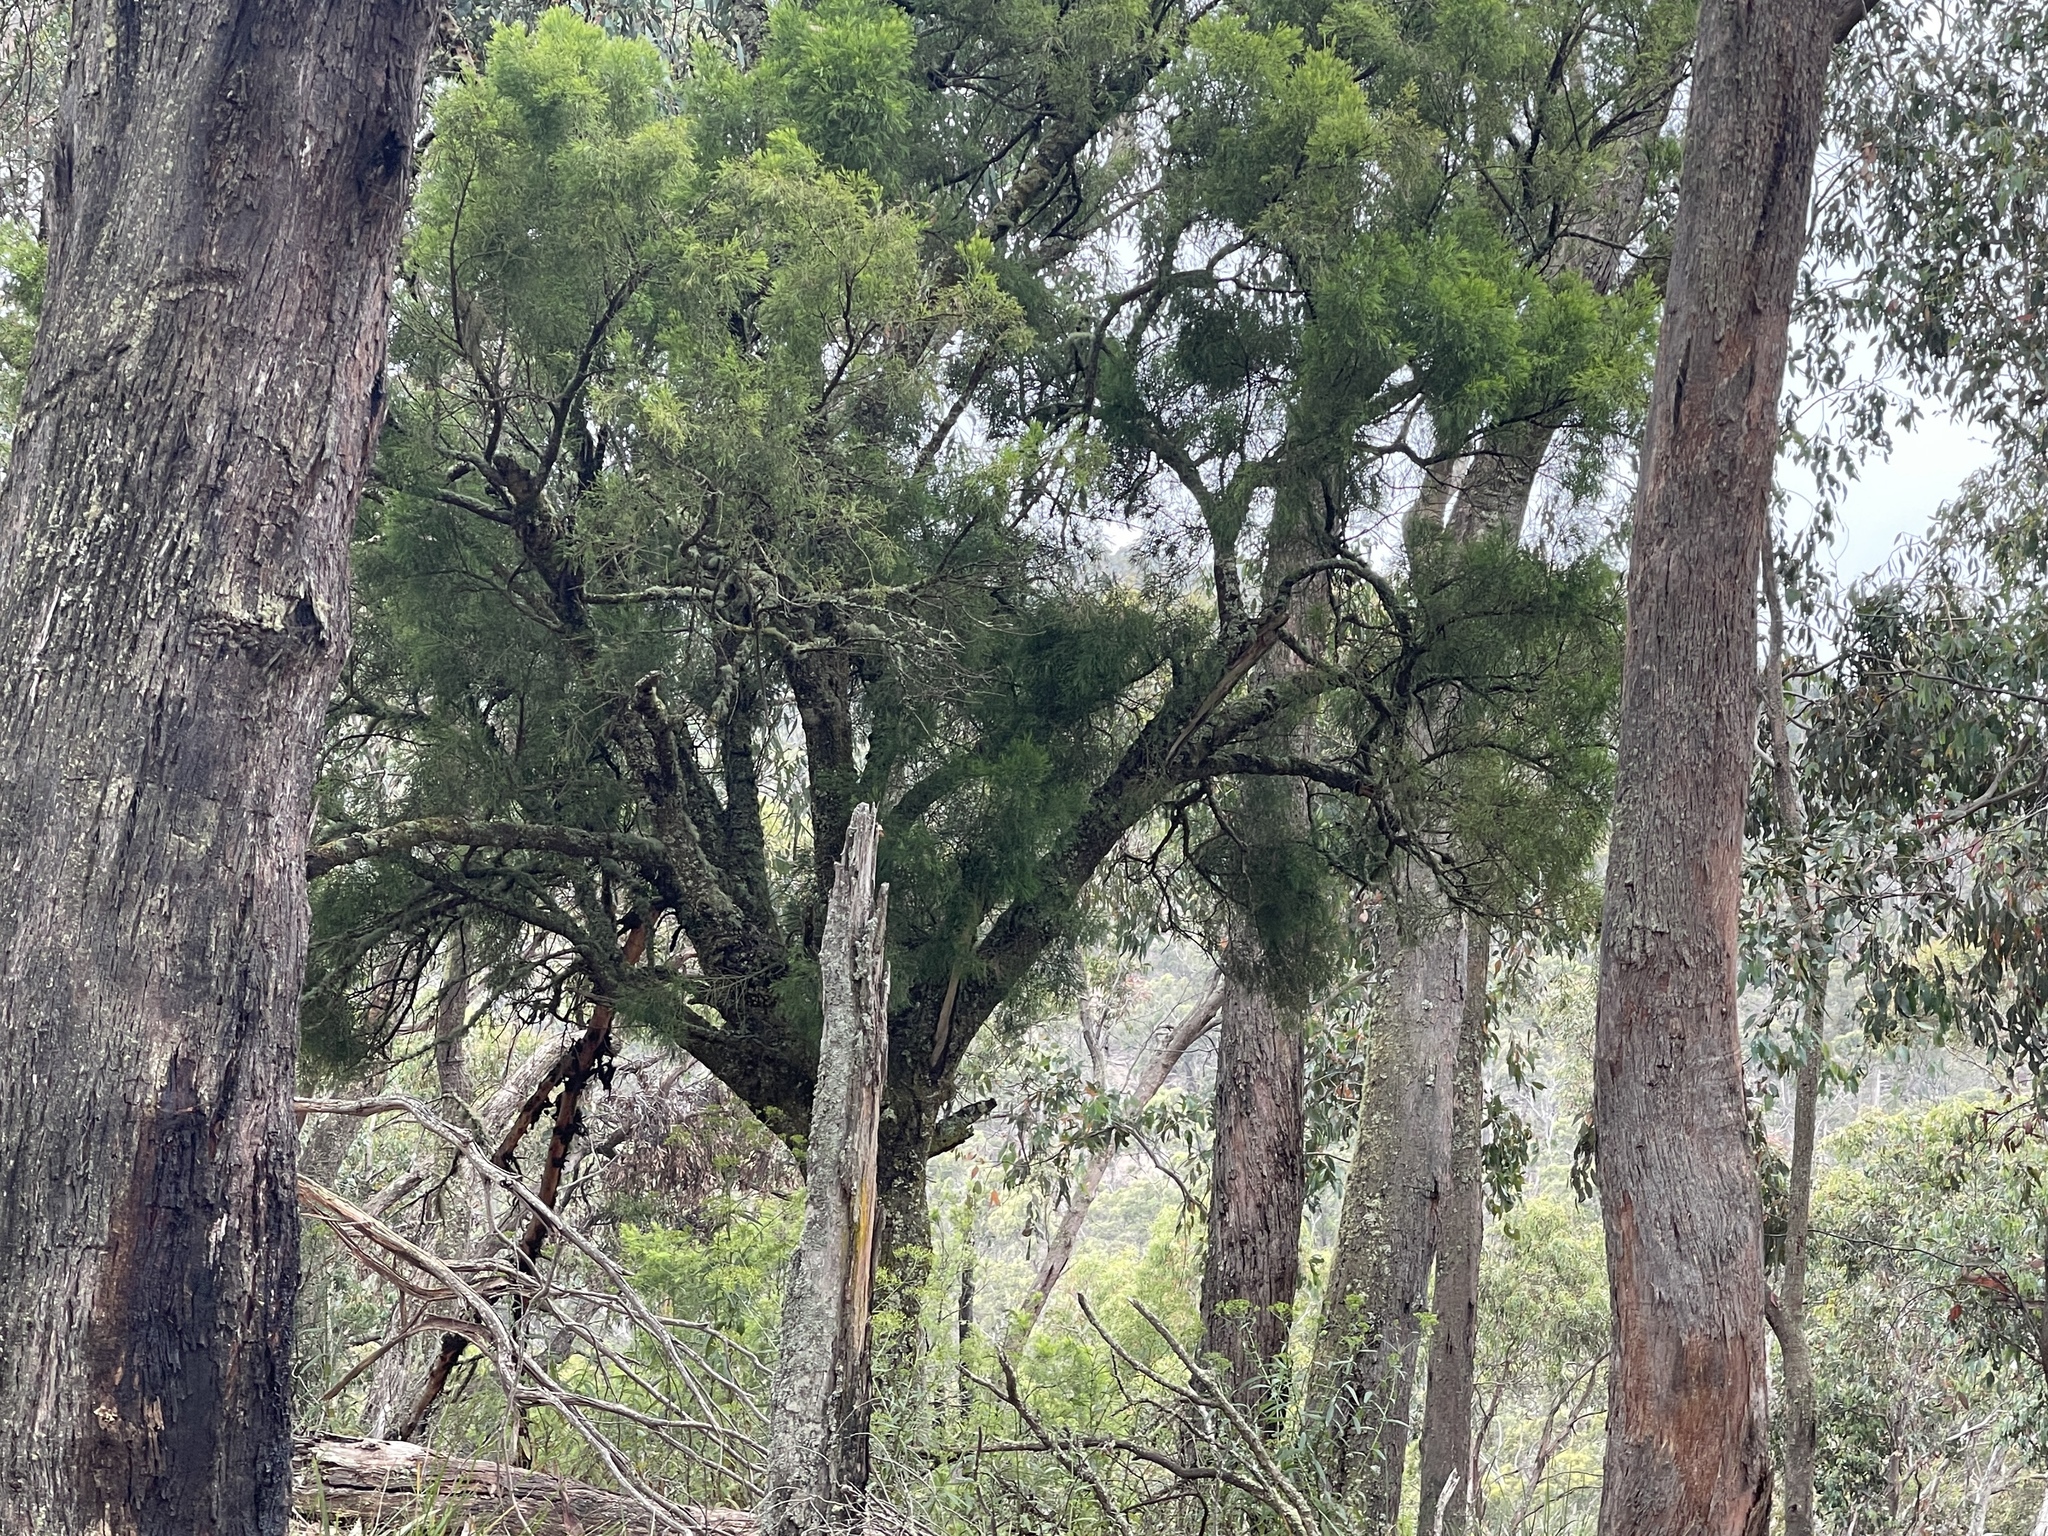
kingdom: Plantae
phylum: Tracheophyta
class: Magnoliopsida
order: Santalales
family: Santalaceae
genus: Exocarpos
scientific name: Exocarpos cupressiformis
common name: Cherry ballart
